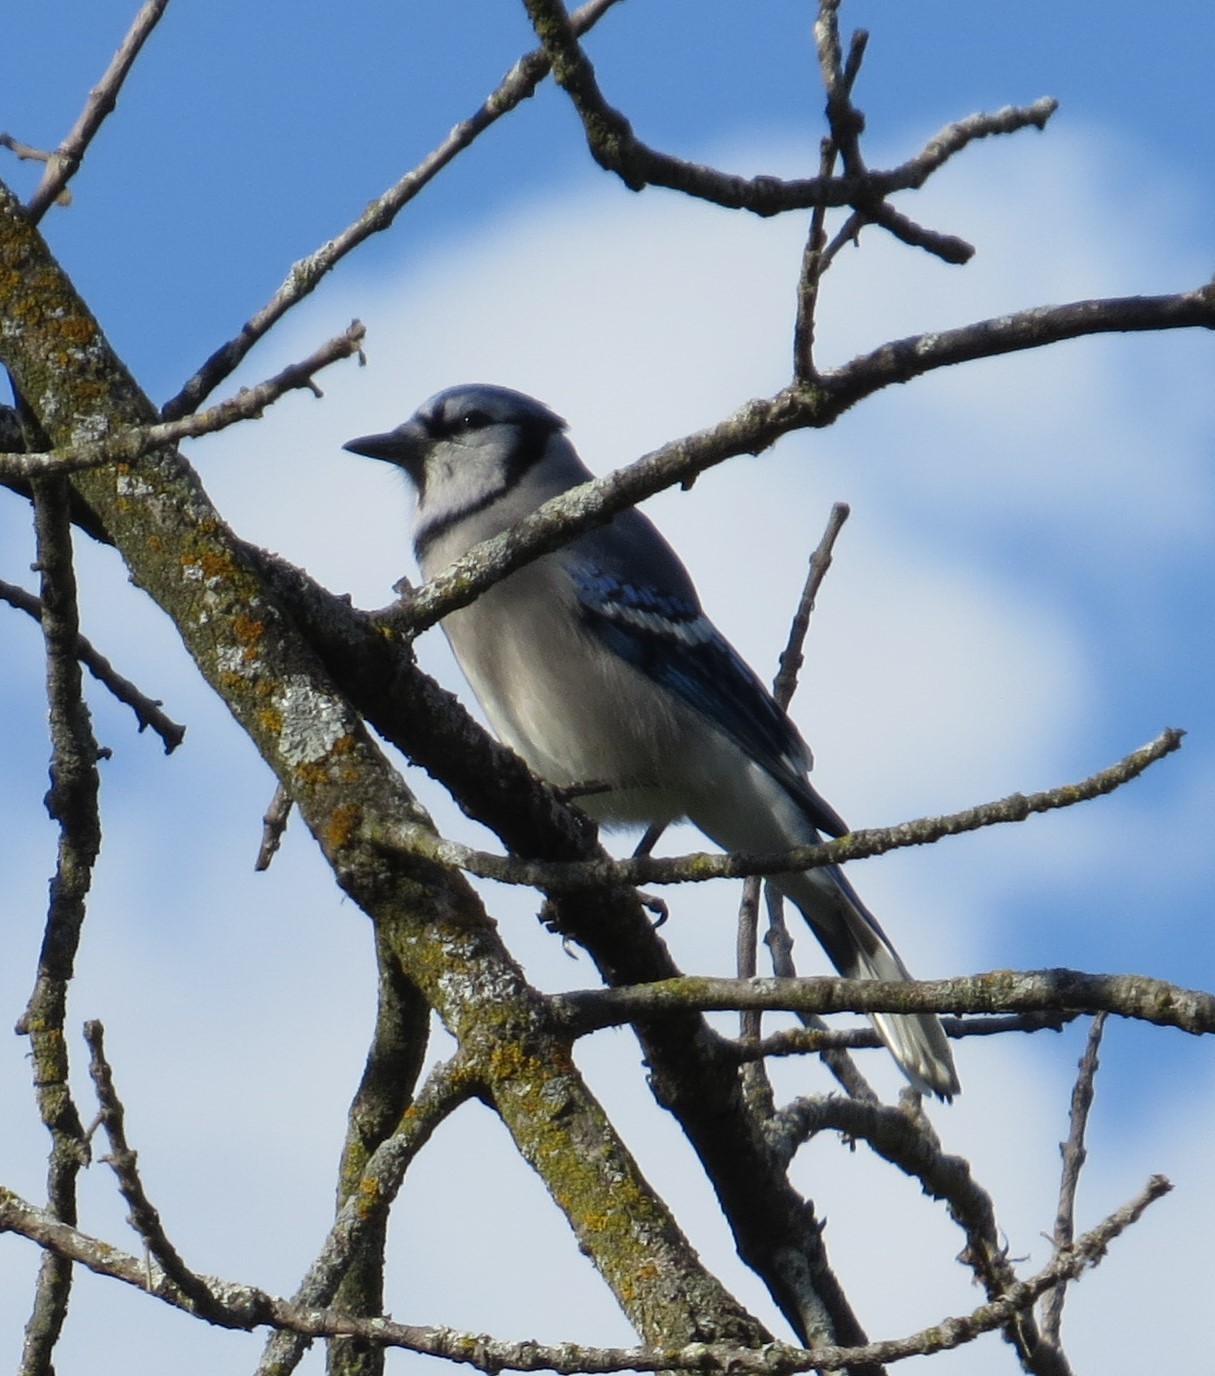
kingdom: Animalia
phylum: Chordata
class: Aves
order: Passeriformes
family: Corvidae
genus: Cyanocitta
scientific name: Cyanocitta cristata
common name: Blue jay
